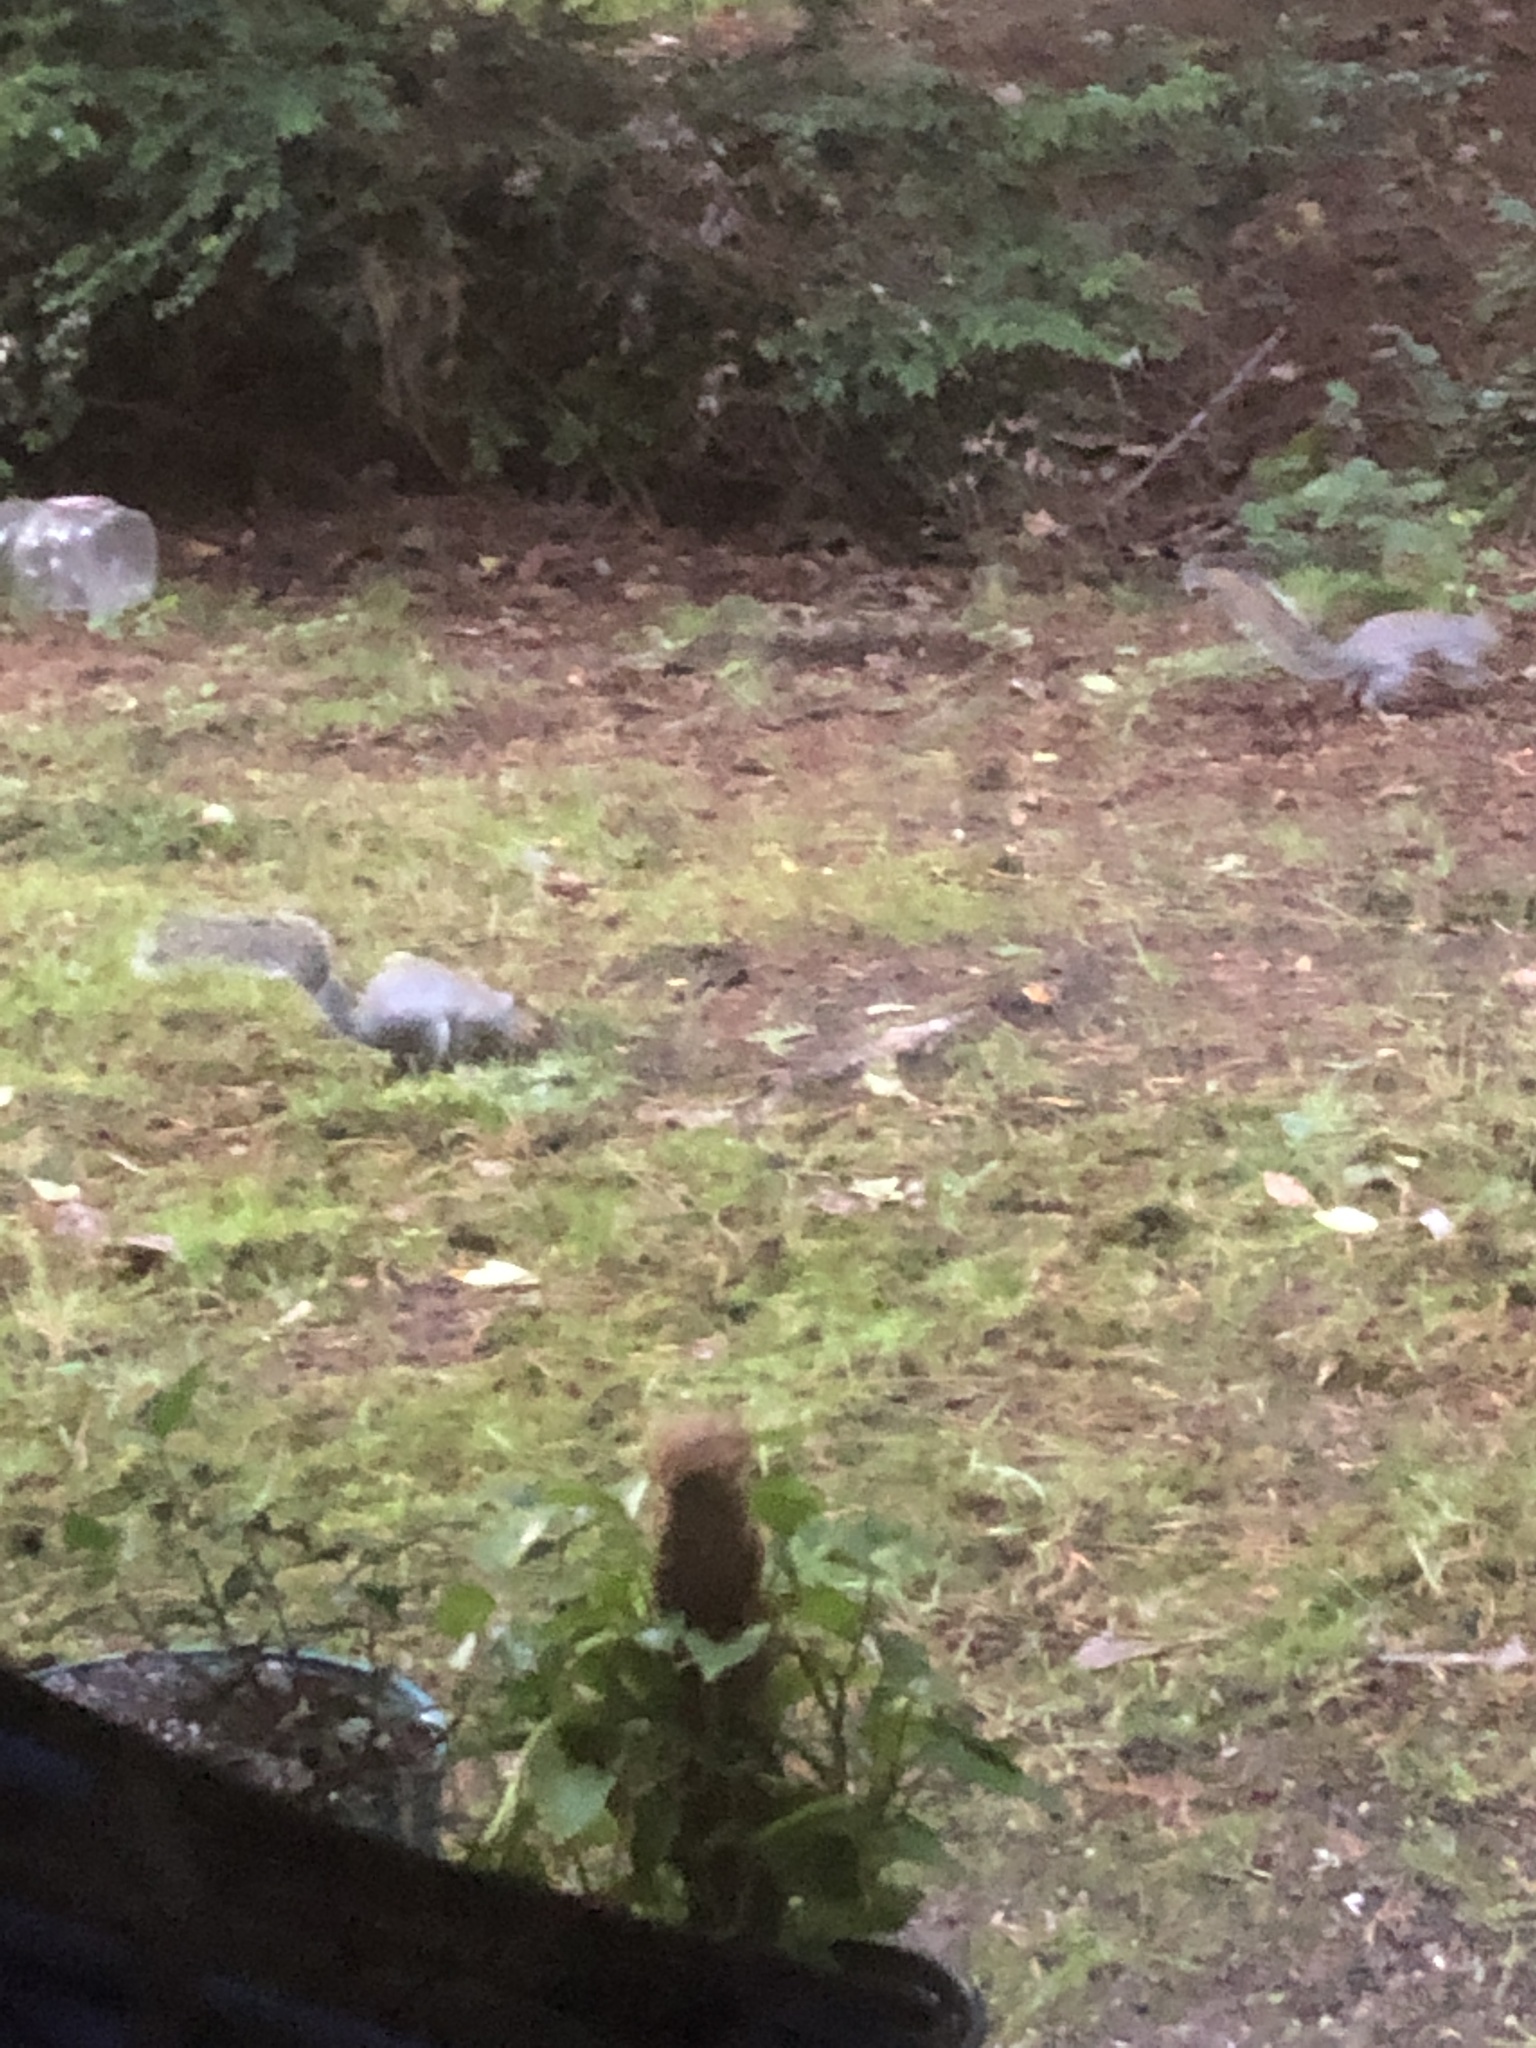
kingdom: Animalia
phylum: Chordata
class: Mammalia
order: Rodentia
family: Sciuridae
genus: Sciurus
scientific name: Sciurus carolinensis
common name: Eastern gray squirrel
